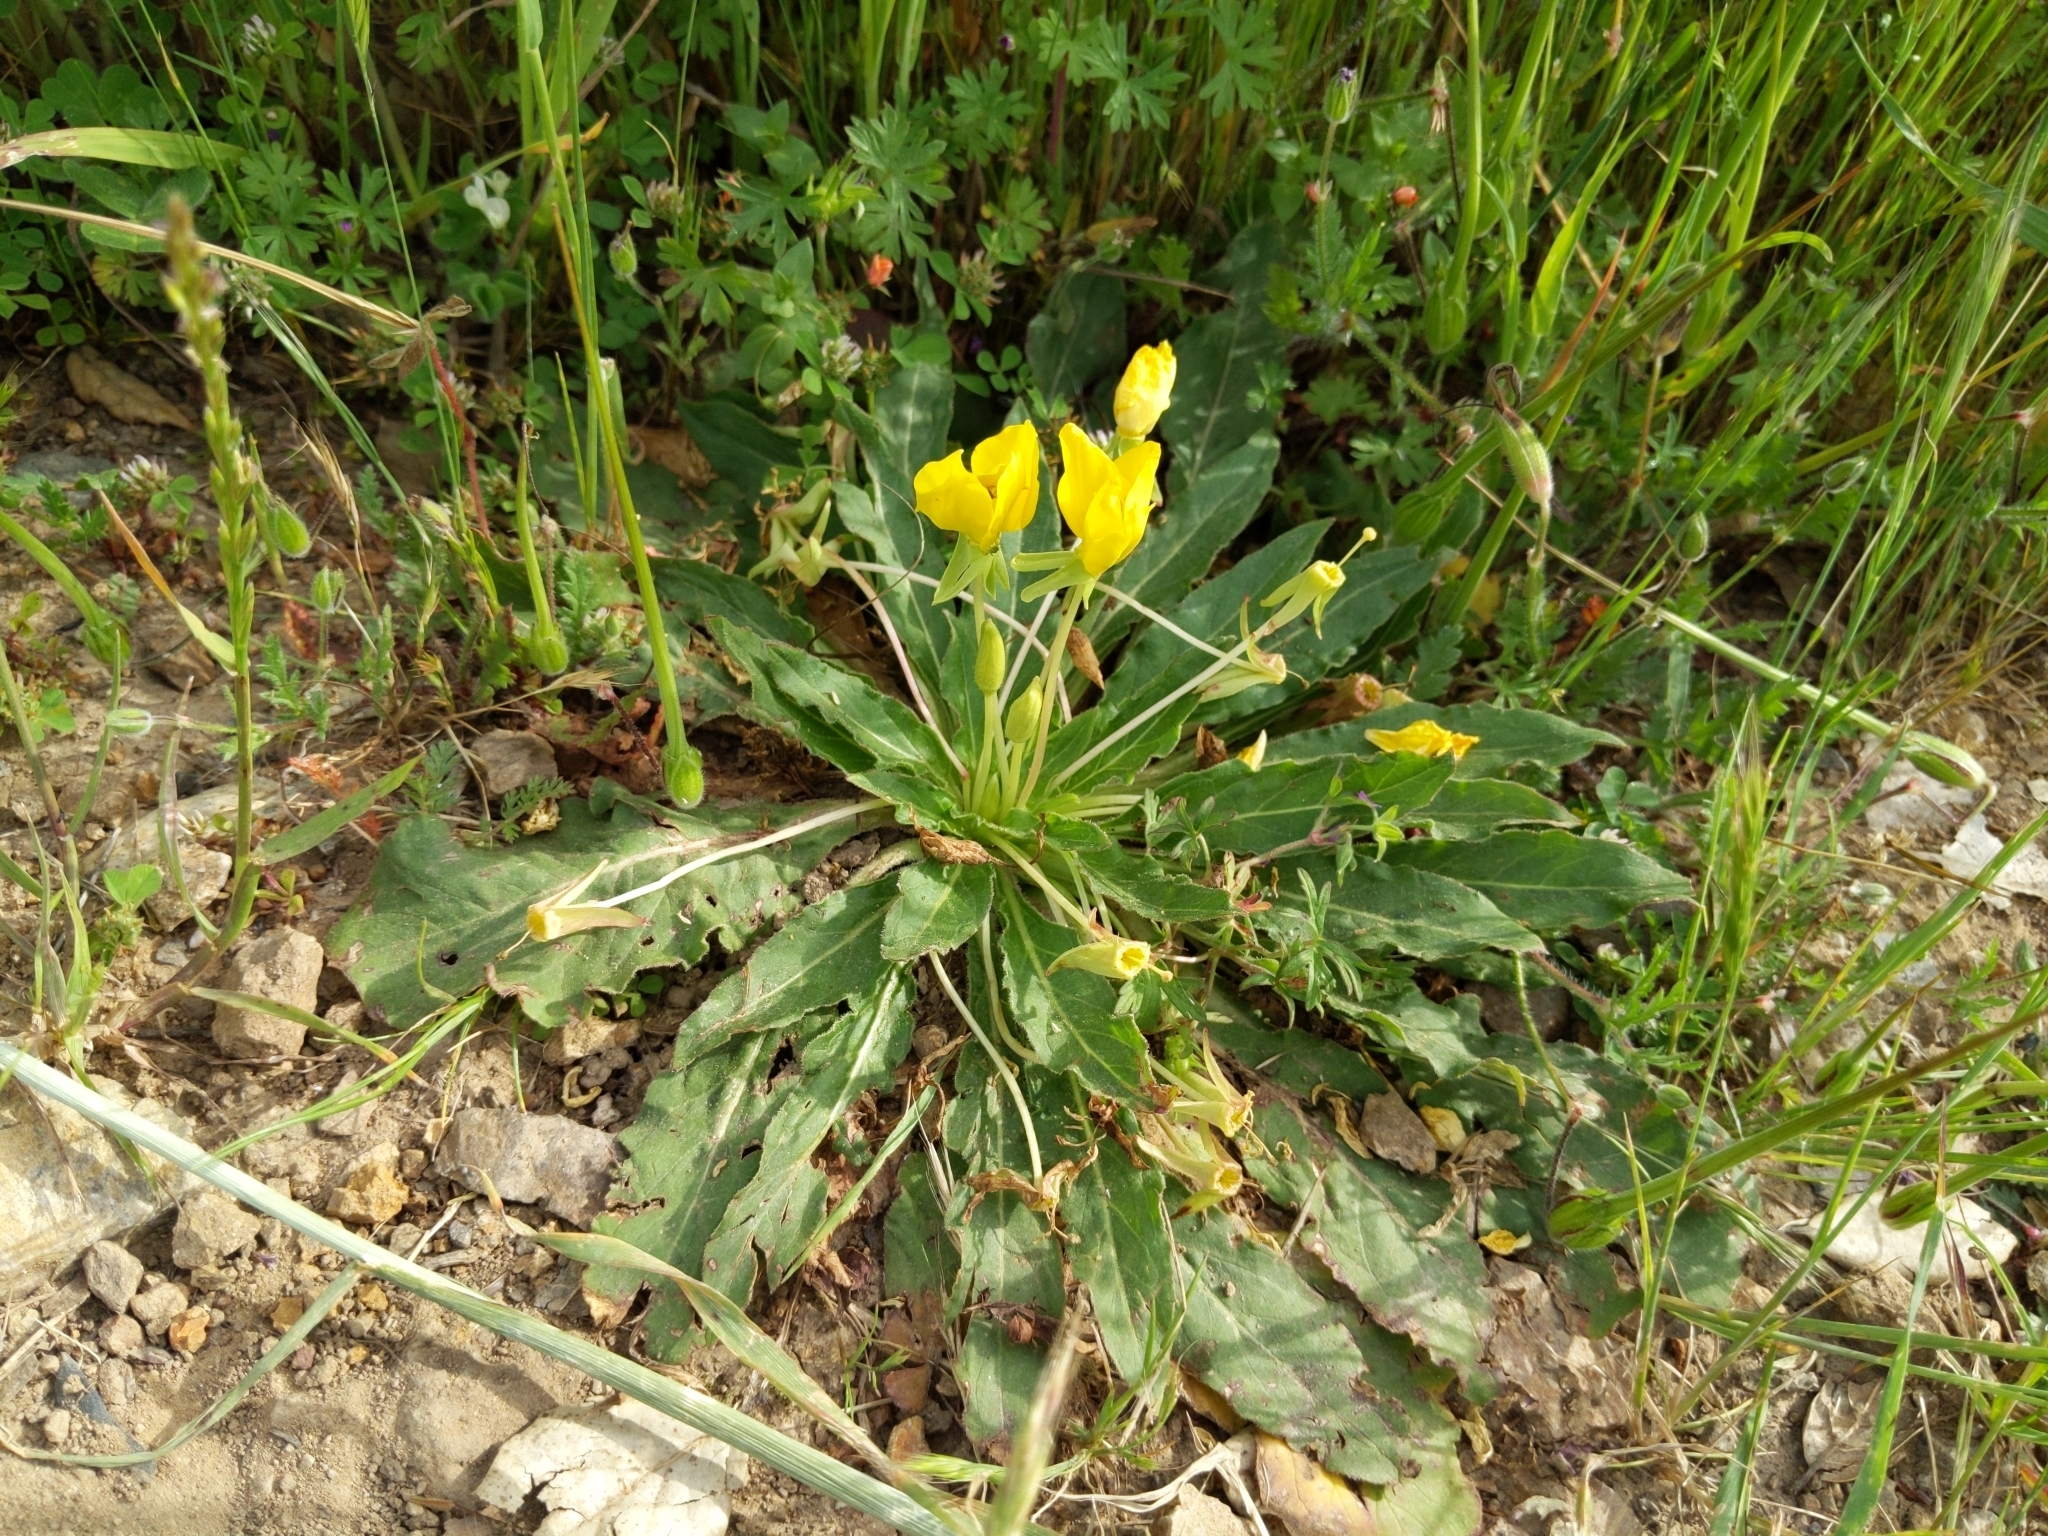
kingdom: Plantae
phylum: Tracheophyta
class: Magnoliopsida
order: Myrtales
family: Onagraceae
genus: Taraxia
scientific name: Taraxia ovata
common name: Goldeneggs
